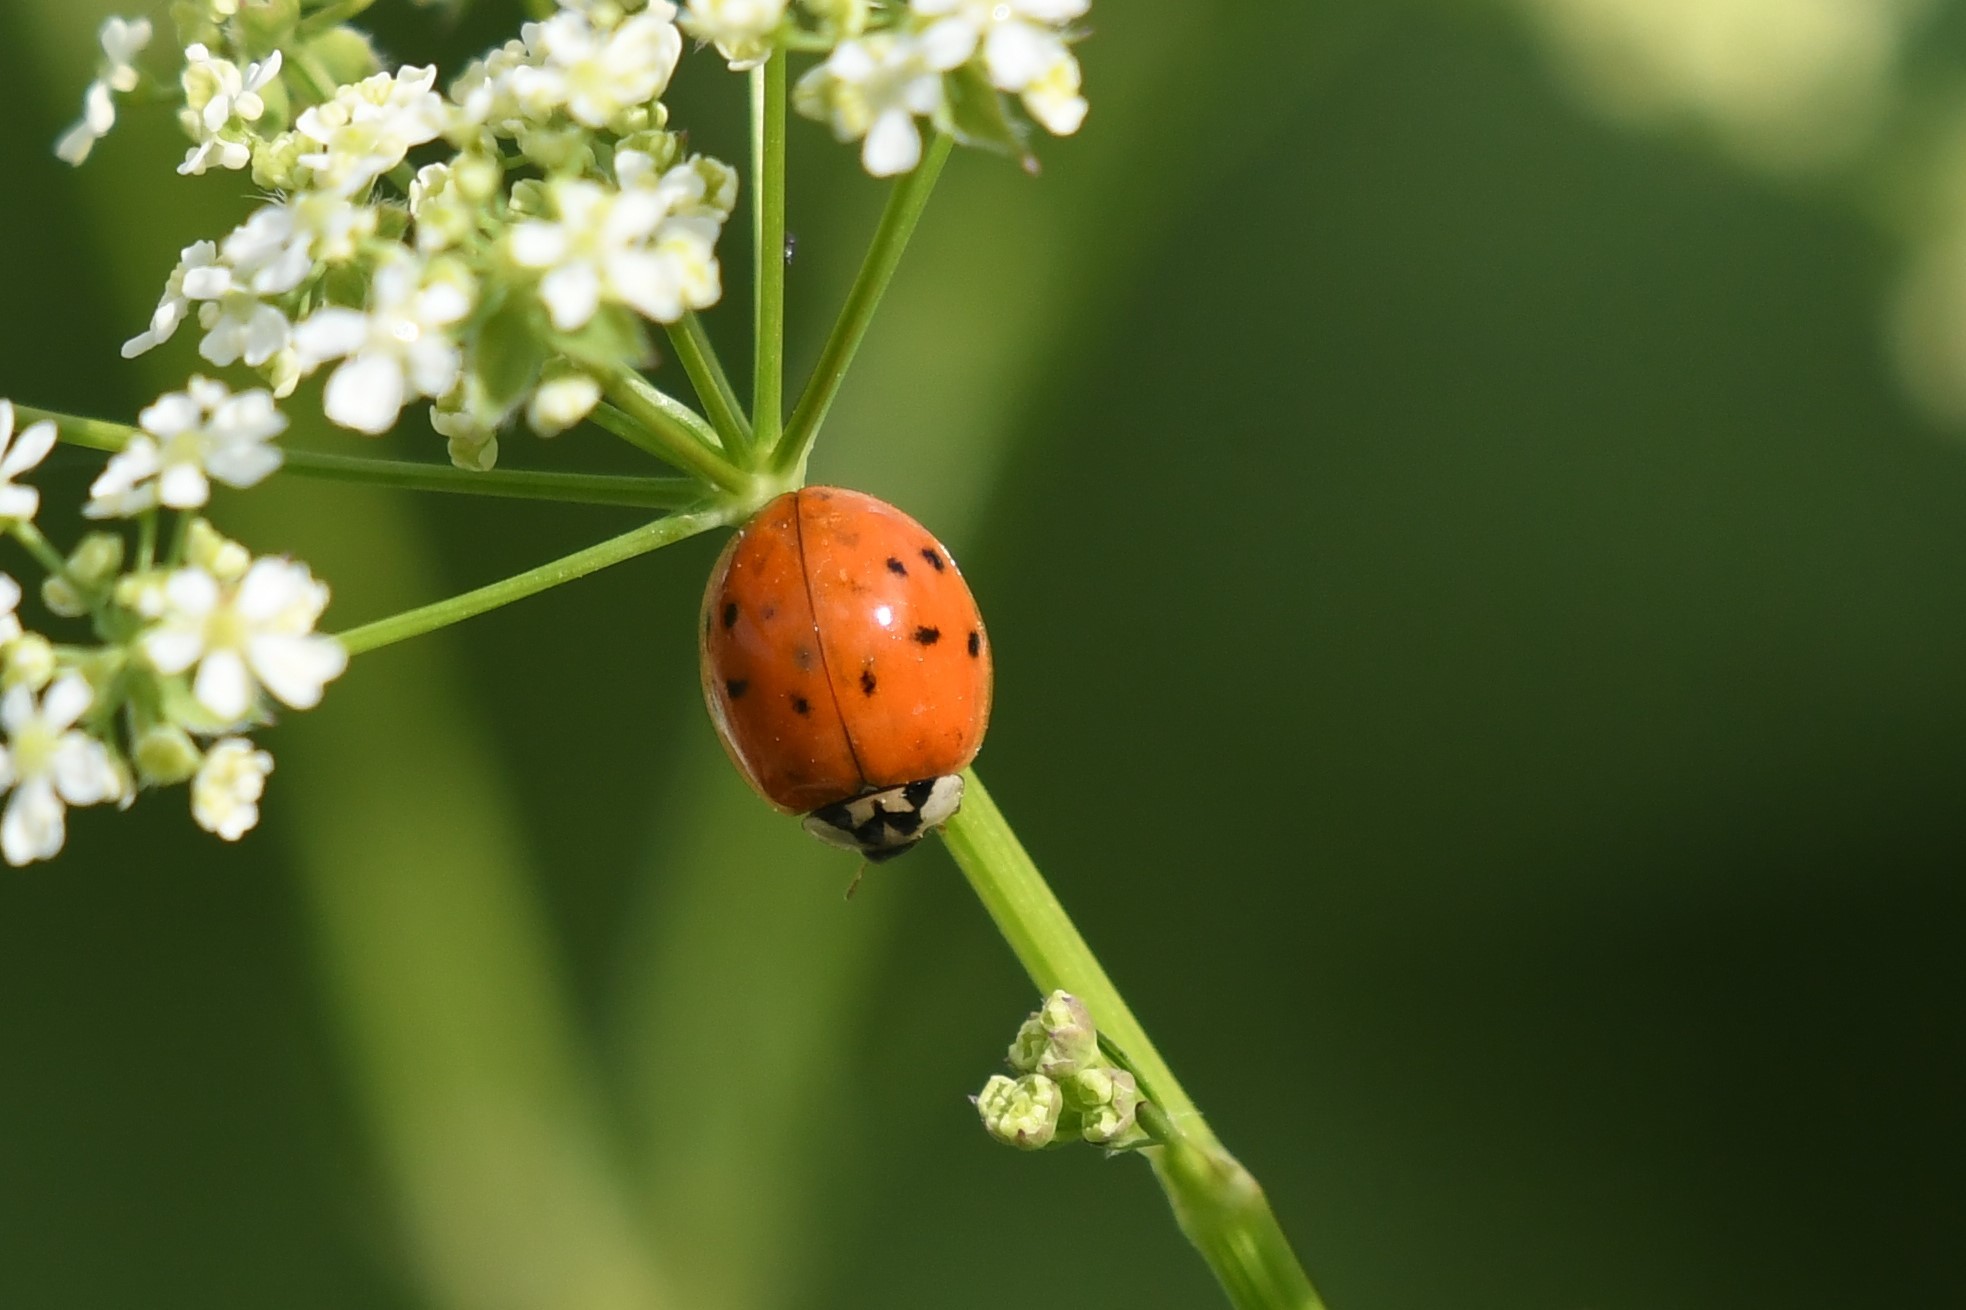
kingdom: Animalia
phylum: Arthropoda
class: Insecta
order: Coleoptera
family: Coccinellidae
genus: Harmonia
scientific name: Harmonia axyridis
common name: Harlequin ladybird
